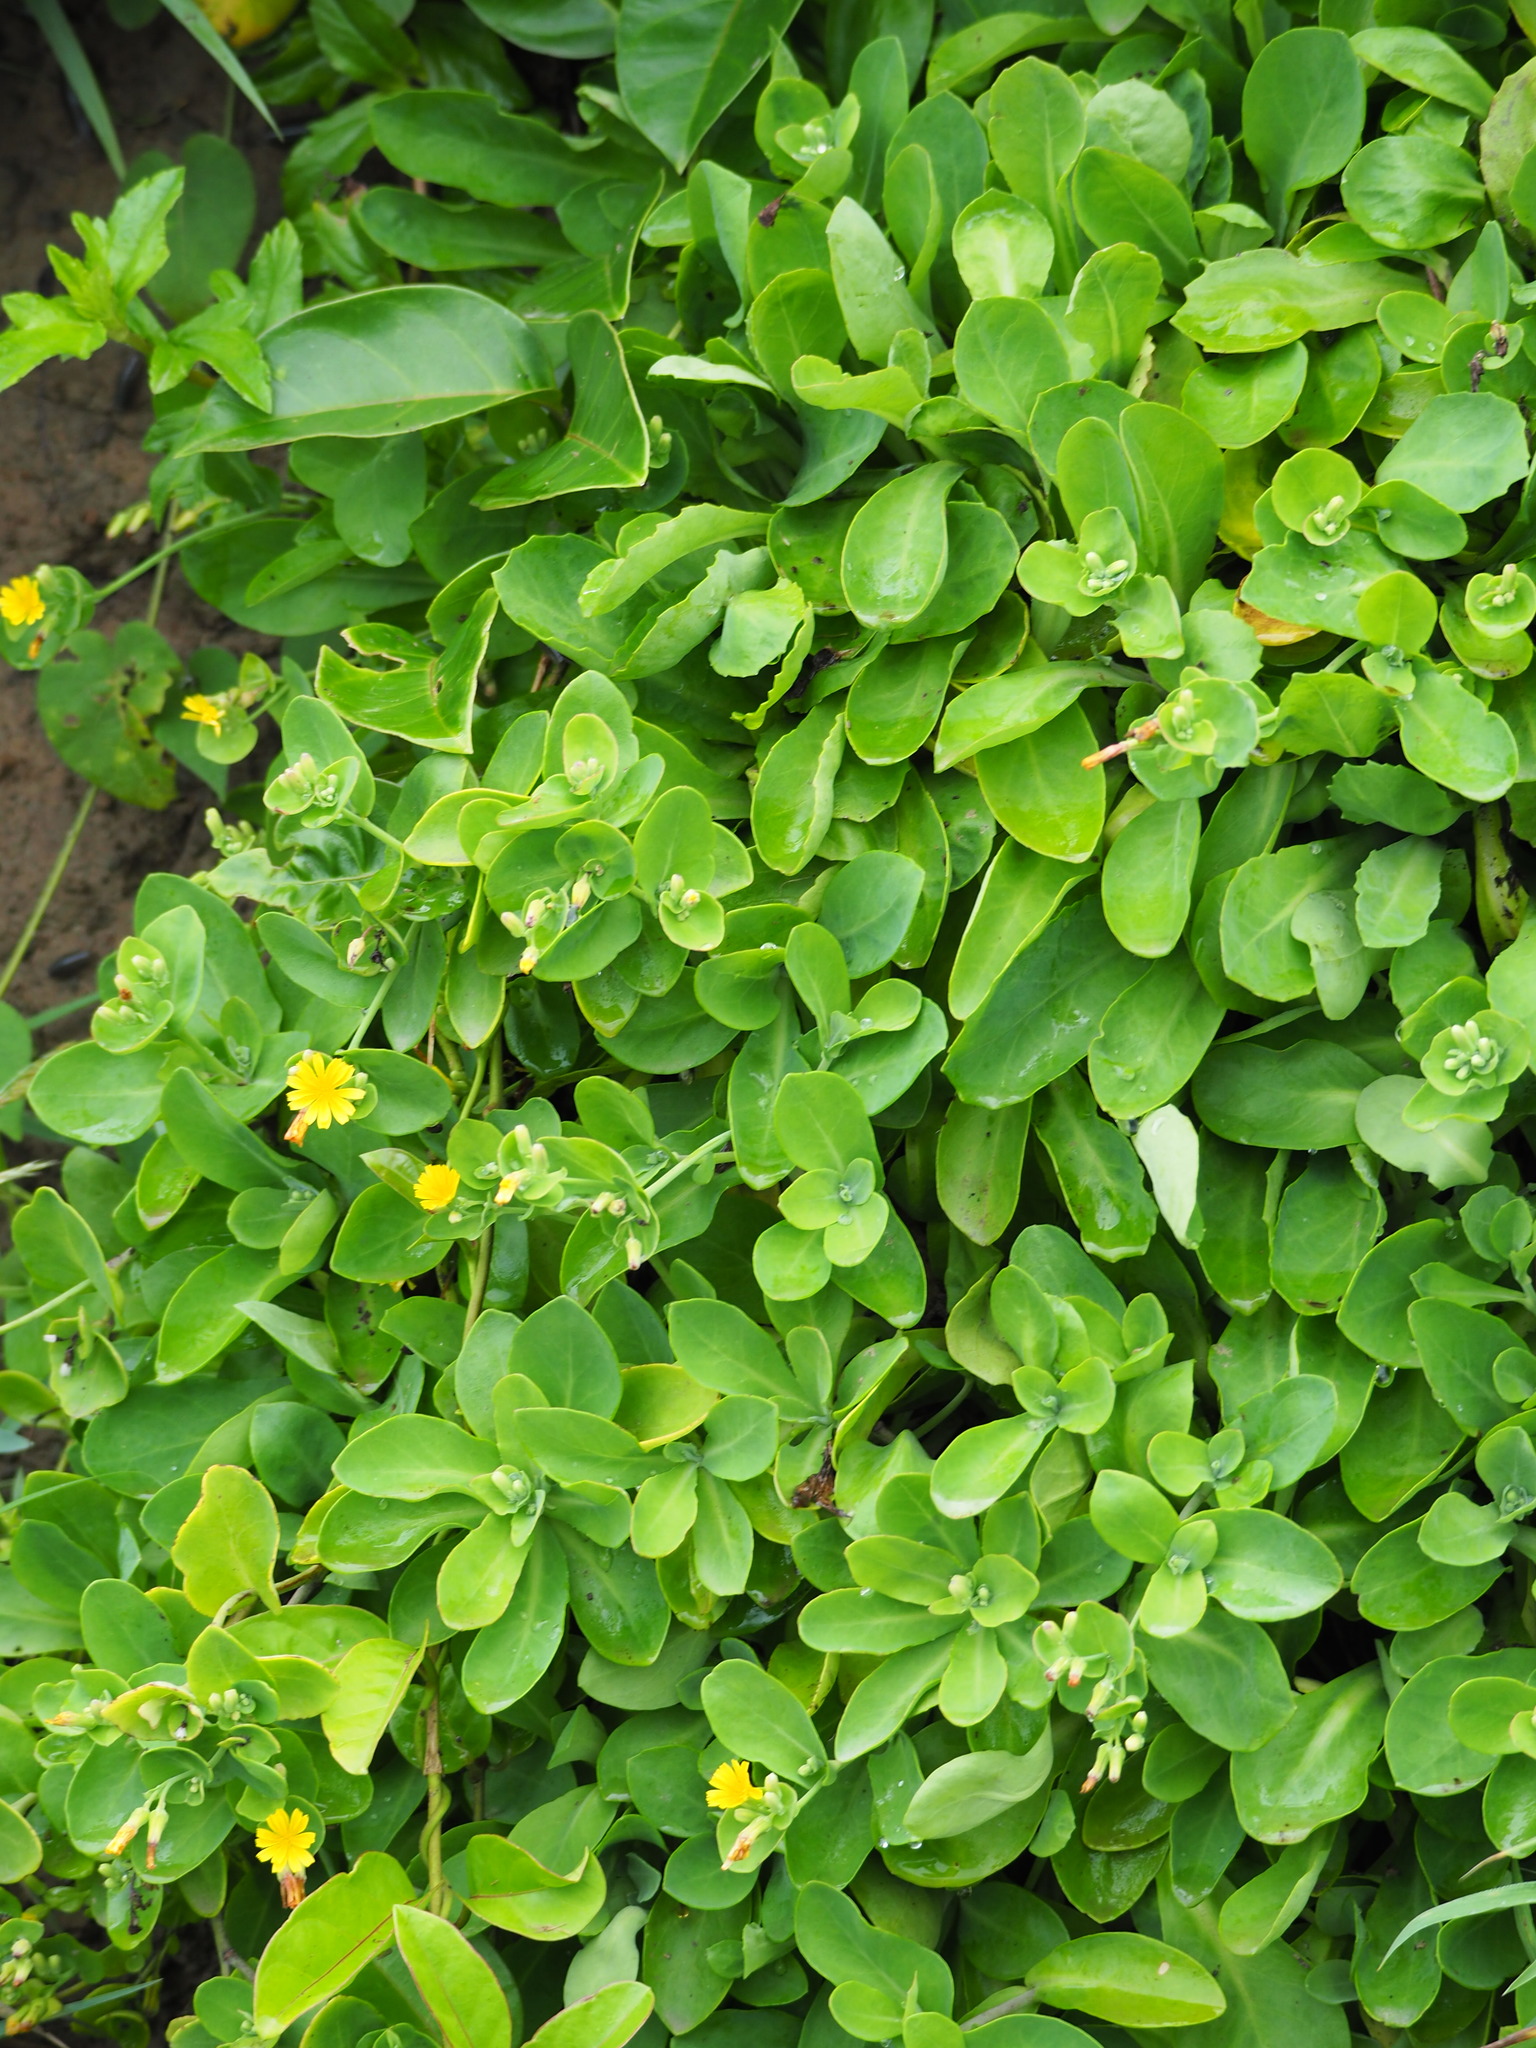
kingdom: Plantae
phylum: Tracheophyta
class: Magnoliopsida
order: Asterales
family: Asteraceae
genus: Crepidiastrum
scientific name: Crepidiastrum taiwanianum
